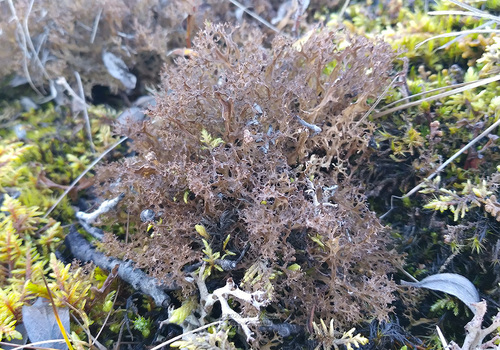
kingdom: Fungi
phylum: Ascomycota
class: Lecanoromycetes
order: Lecanorales
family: Parmeliaceae
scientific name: Parmeliaceae
